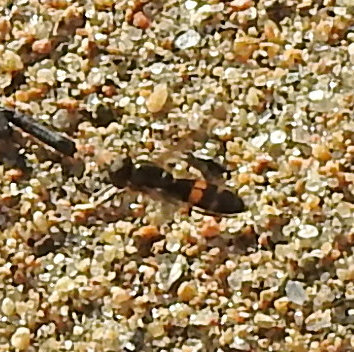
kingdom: Animalia
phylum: Arthropoda
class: Insecta
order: Diptera
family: Syrphidae
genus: Pyrophaena
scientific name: Pyrophaena rosarum
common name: Fourspot sedgesitter
